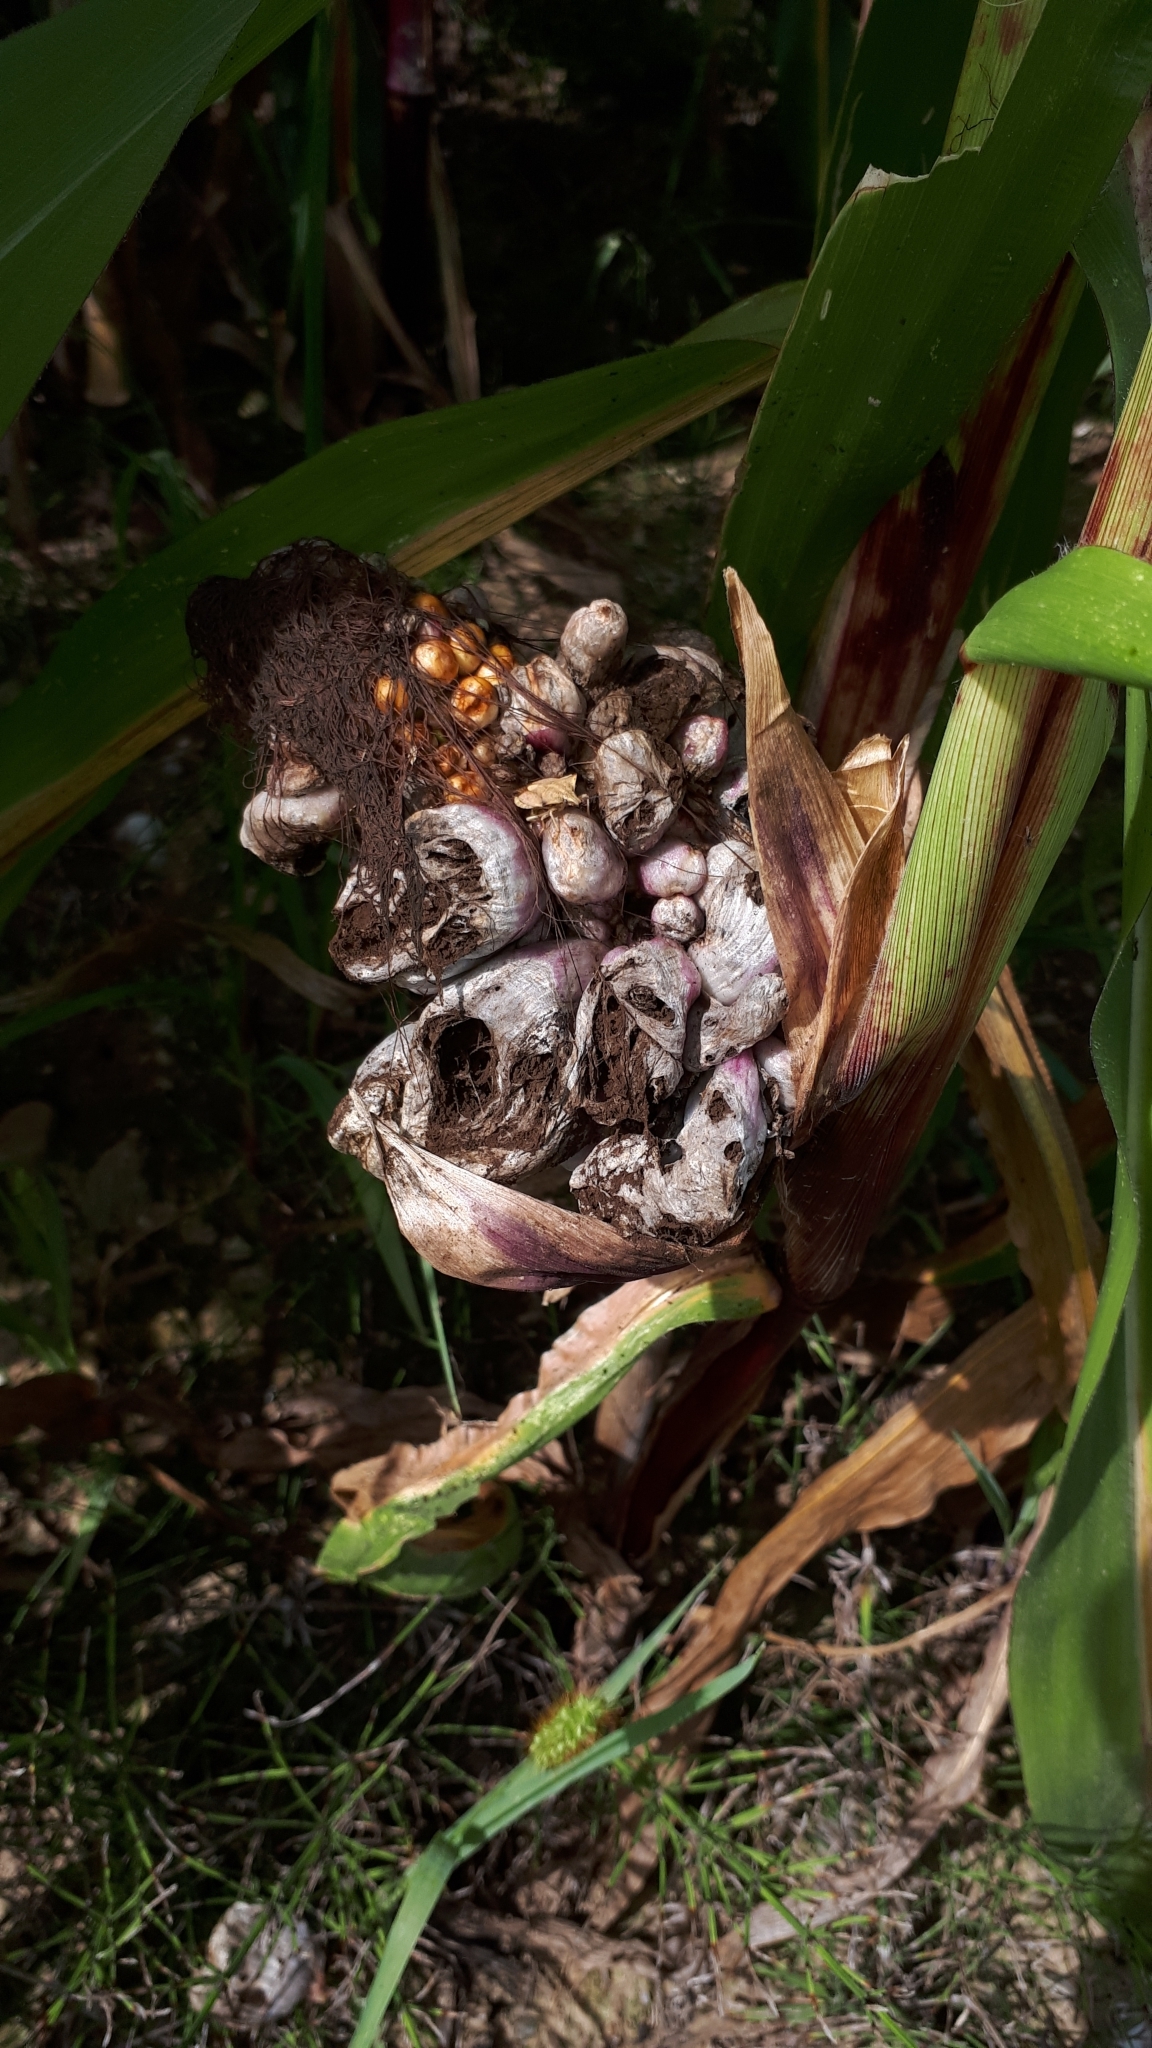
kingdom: Fungi
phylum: Basidiomycota
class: Ustilaginomycetes
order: Ustilaginales
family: Ustilaginaceae
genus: Mycosarcoma
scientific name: Mycosarcoma maydis
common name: Corn smut
